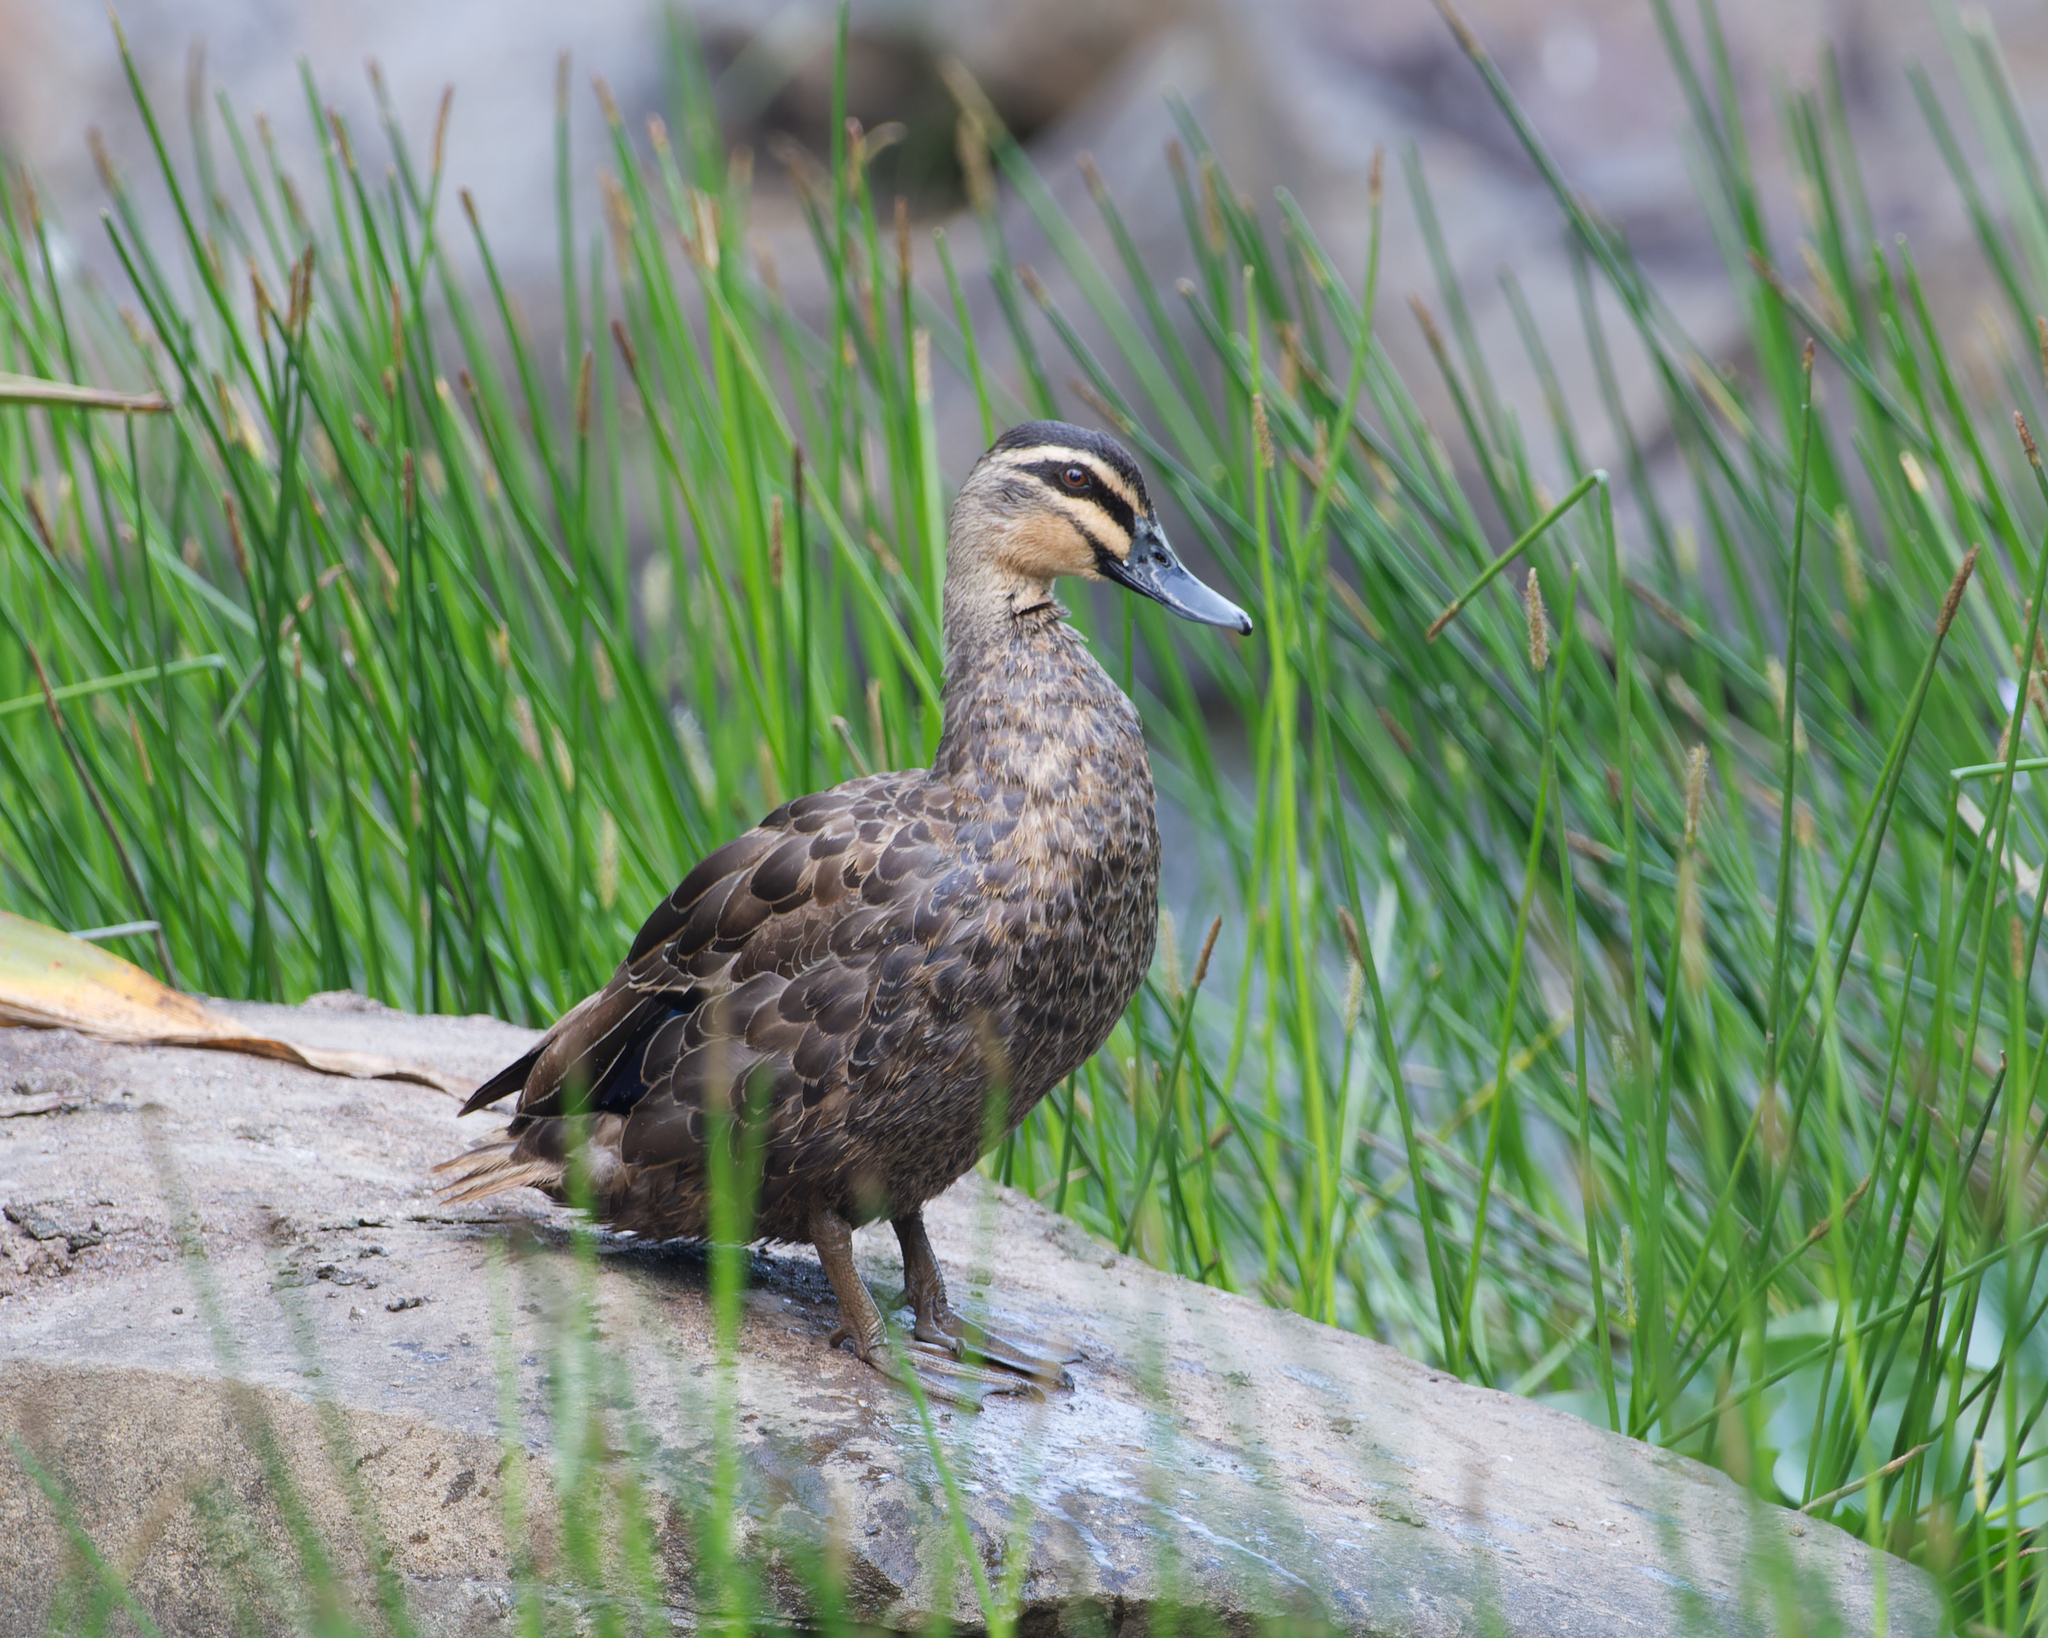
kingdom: Animalia
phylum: Chordata
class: Aves
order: Anseriformes
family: Anatidae
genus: Anas
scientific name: Anas superciliosa
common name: Pacific black duck
